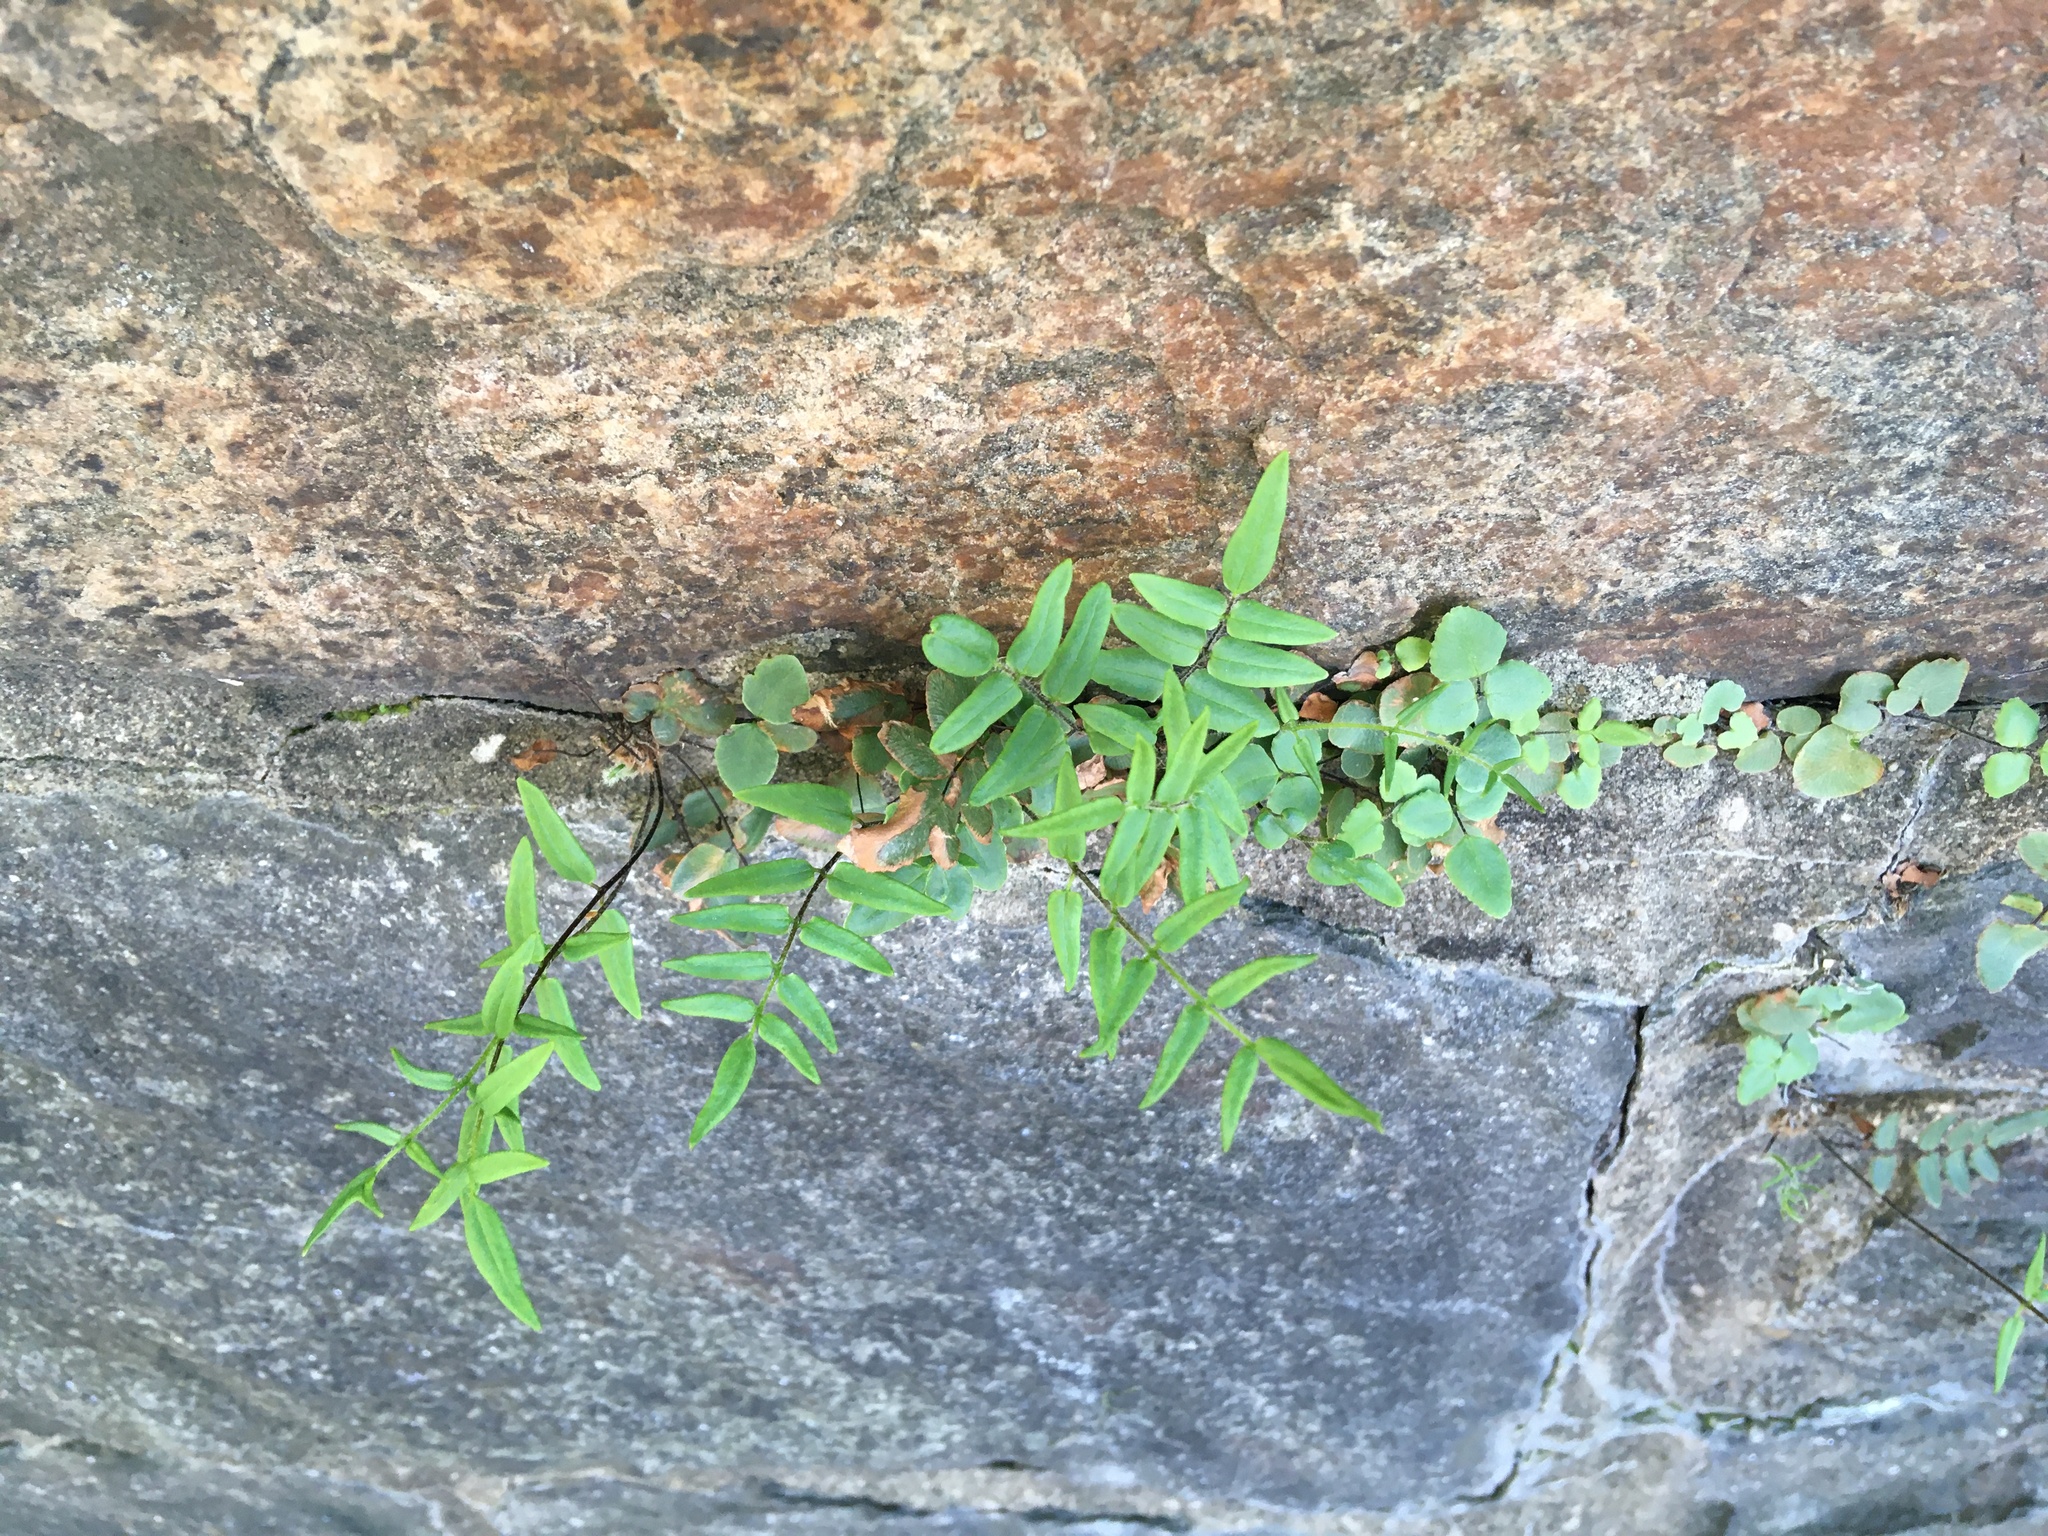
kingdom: Plantae
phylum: Tracheophyta
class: Polypodiopsida
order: Polypodiales
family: Pteridaceae
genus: Pellaea
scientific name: Pellaea atropurpurea
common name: Hairy cliffbrake
